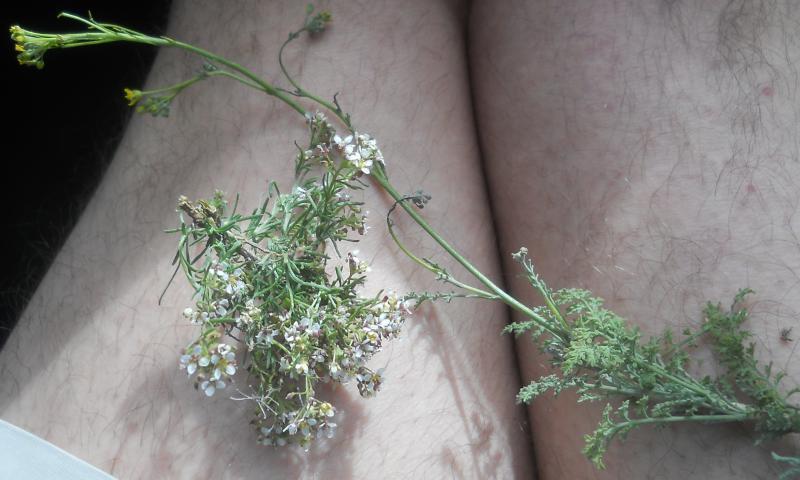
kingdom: Plantae
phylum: Tracheophyta
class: Magnoliopsida
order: Brassicales
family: Brassicaceae
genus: Lobularia
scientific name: Lobularia maritima
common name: Sweet alison
